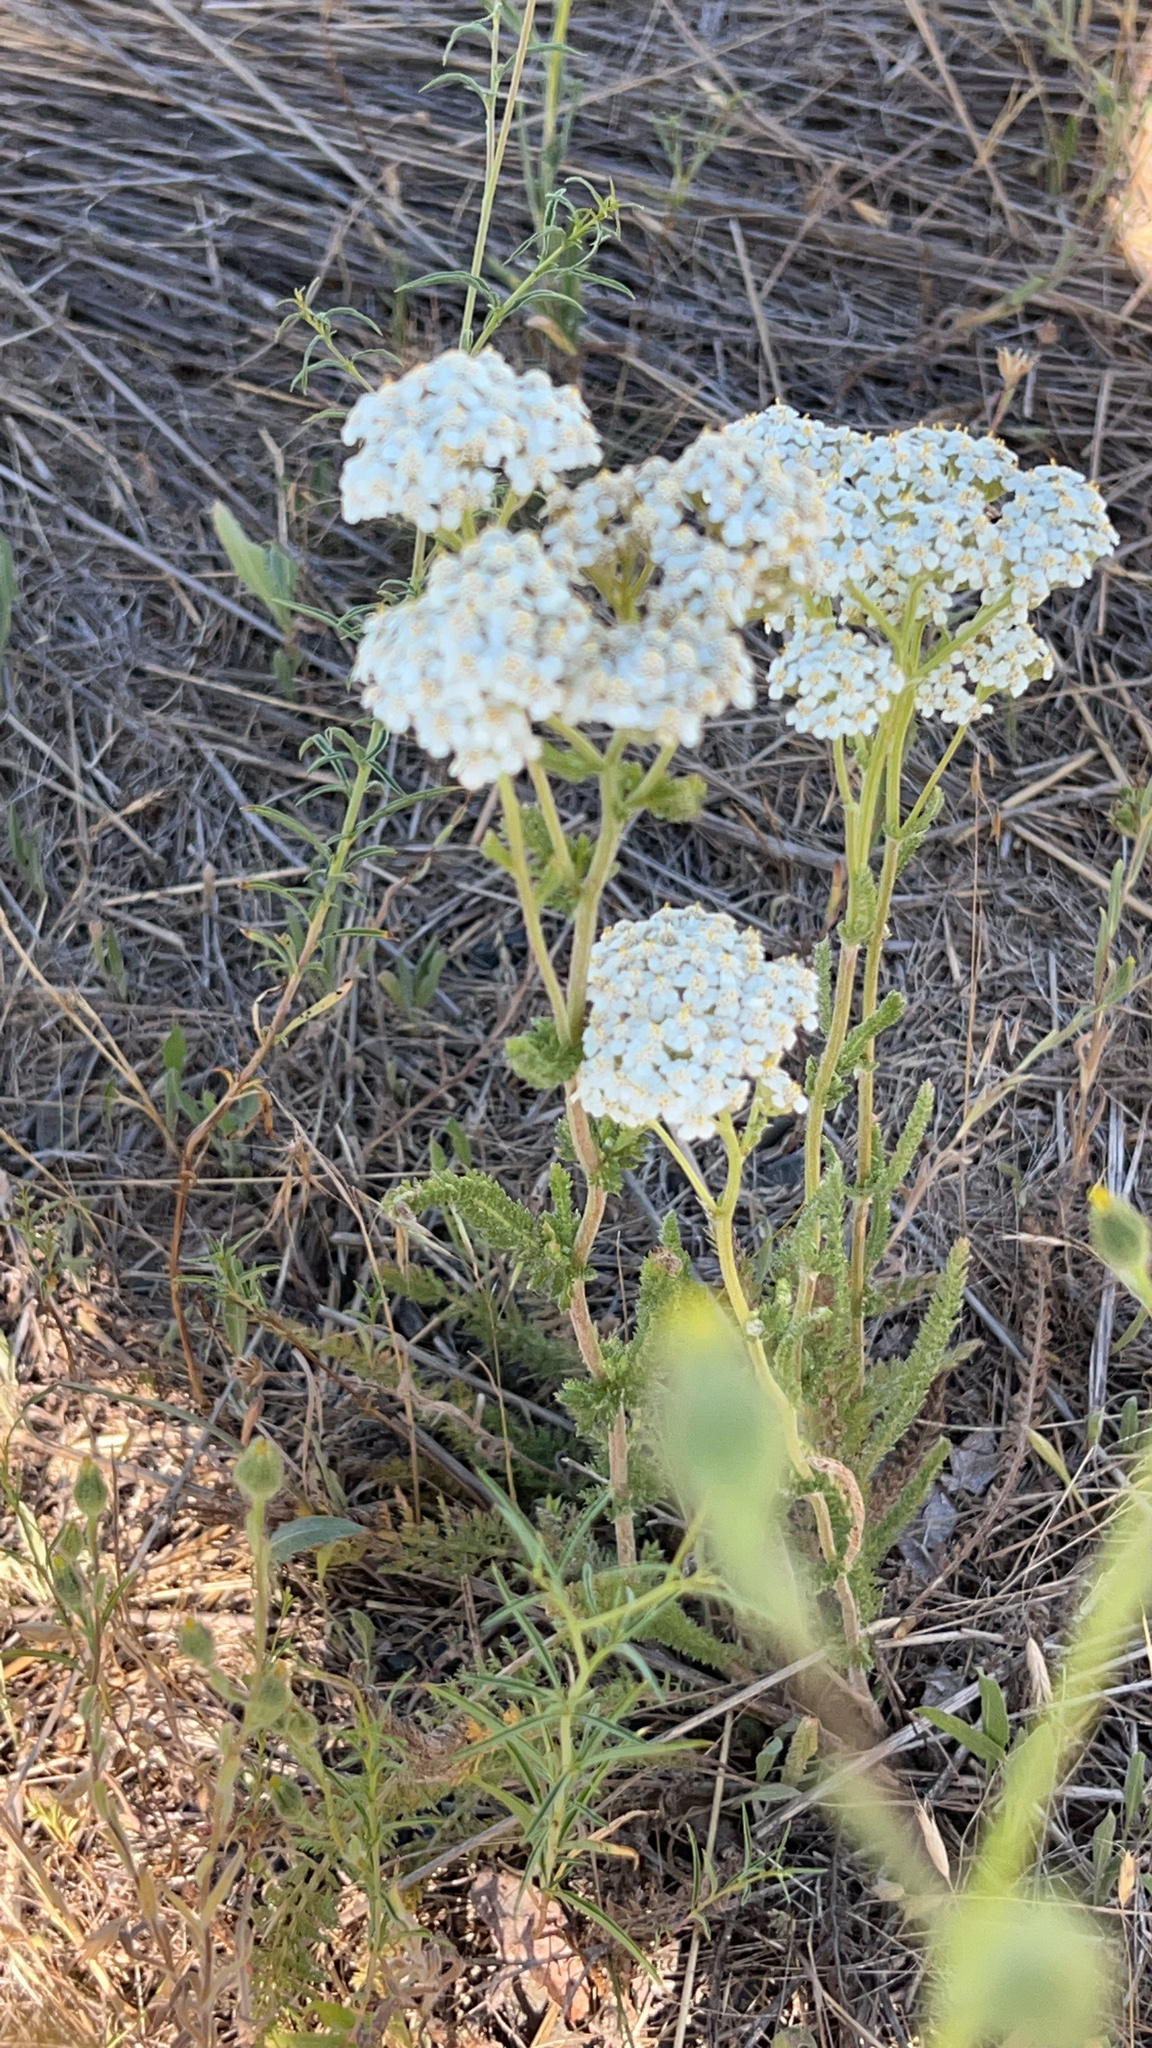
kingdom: Plantae
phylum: Tracheophyta
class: Magnoliopsida
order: Asterales
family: Asteraceae
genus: Achillea
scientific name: Achillea millefolium
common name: Yarrow
